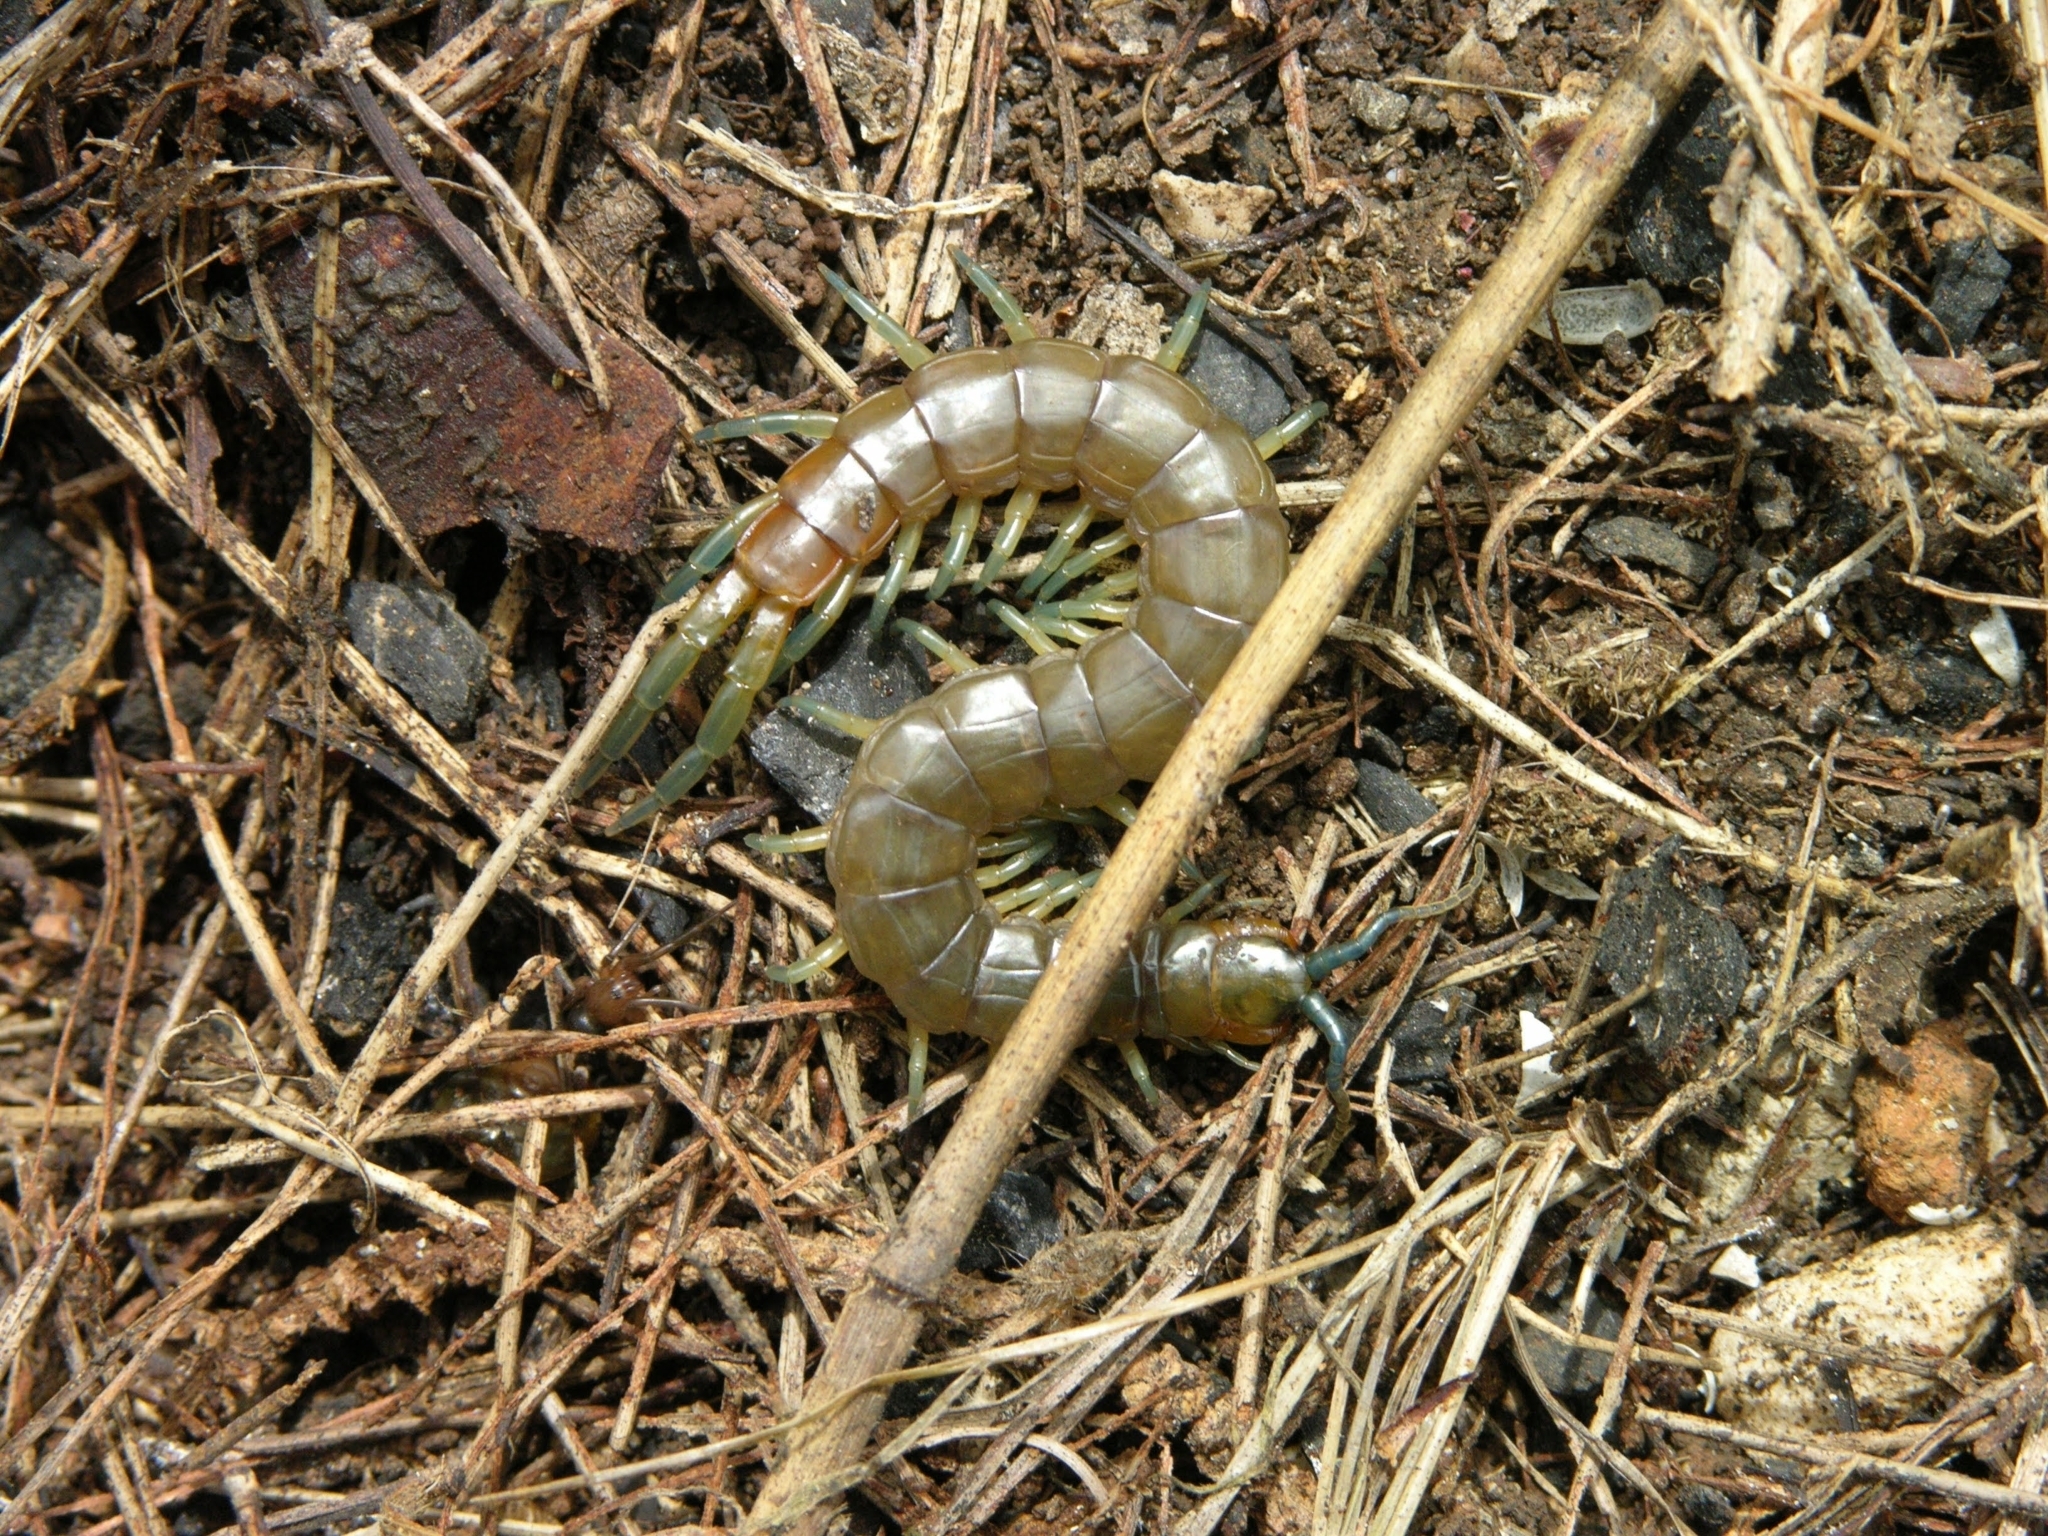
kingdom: Animalia
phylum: Arthropoda
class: Chilopoda
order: Scolopendromorpha
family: Scolopendridae
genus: Scolopendra
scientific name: Scolopendra dalmatica
